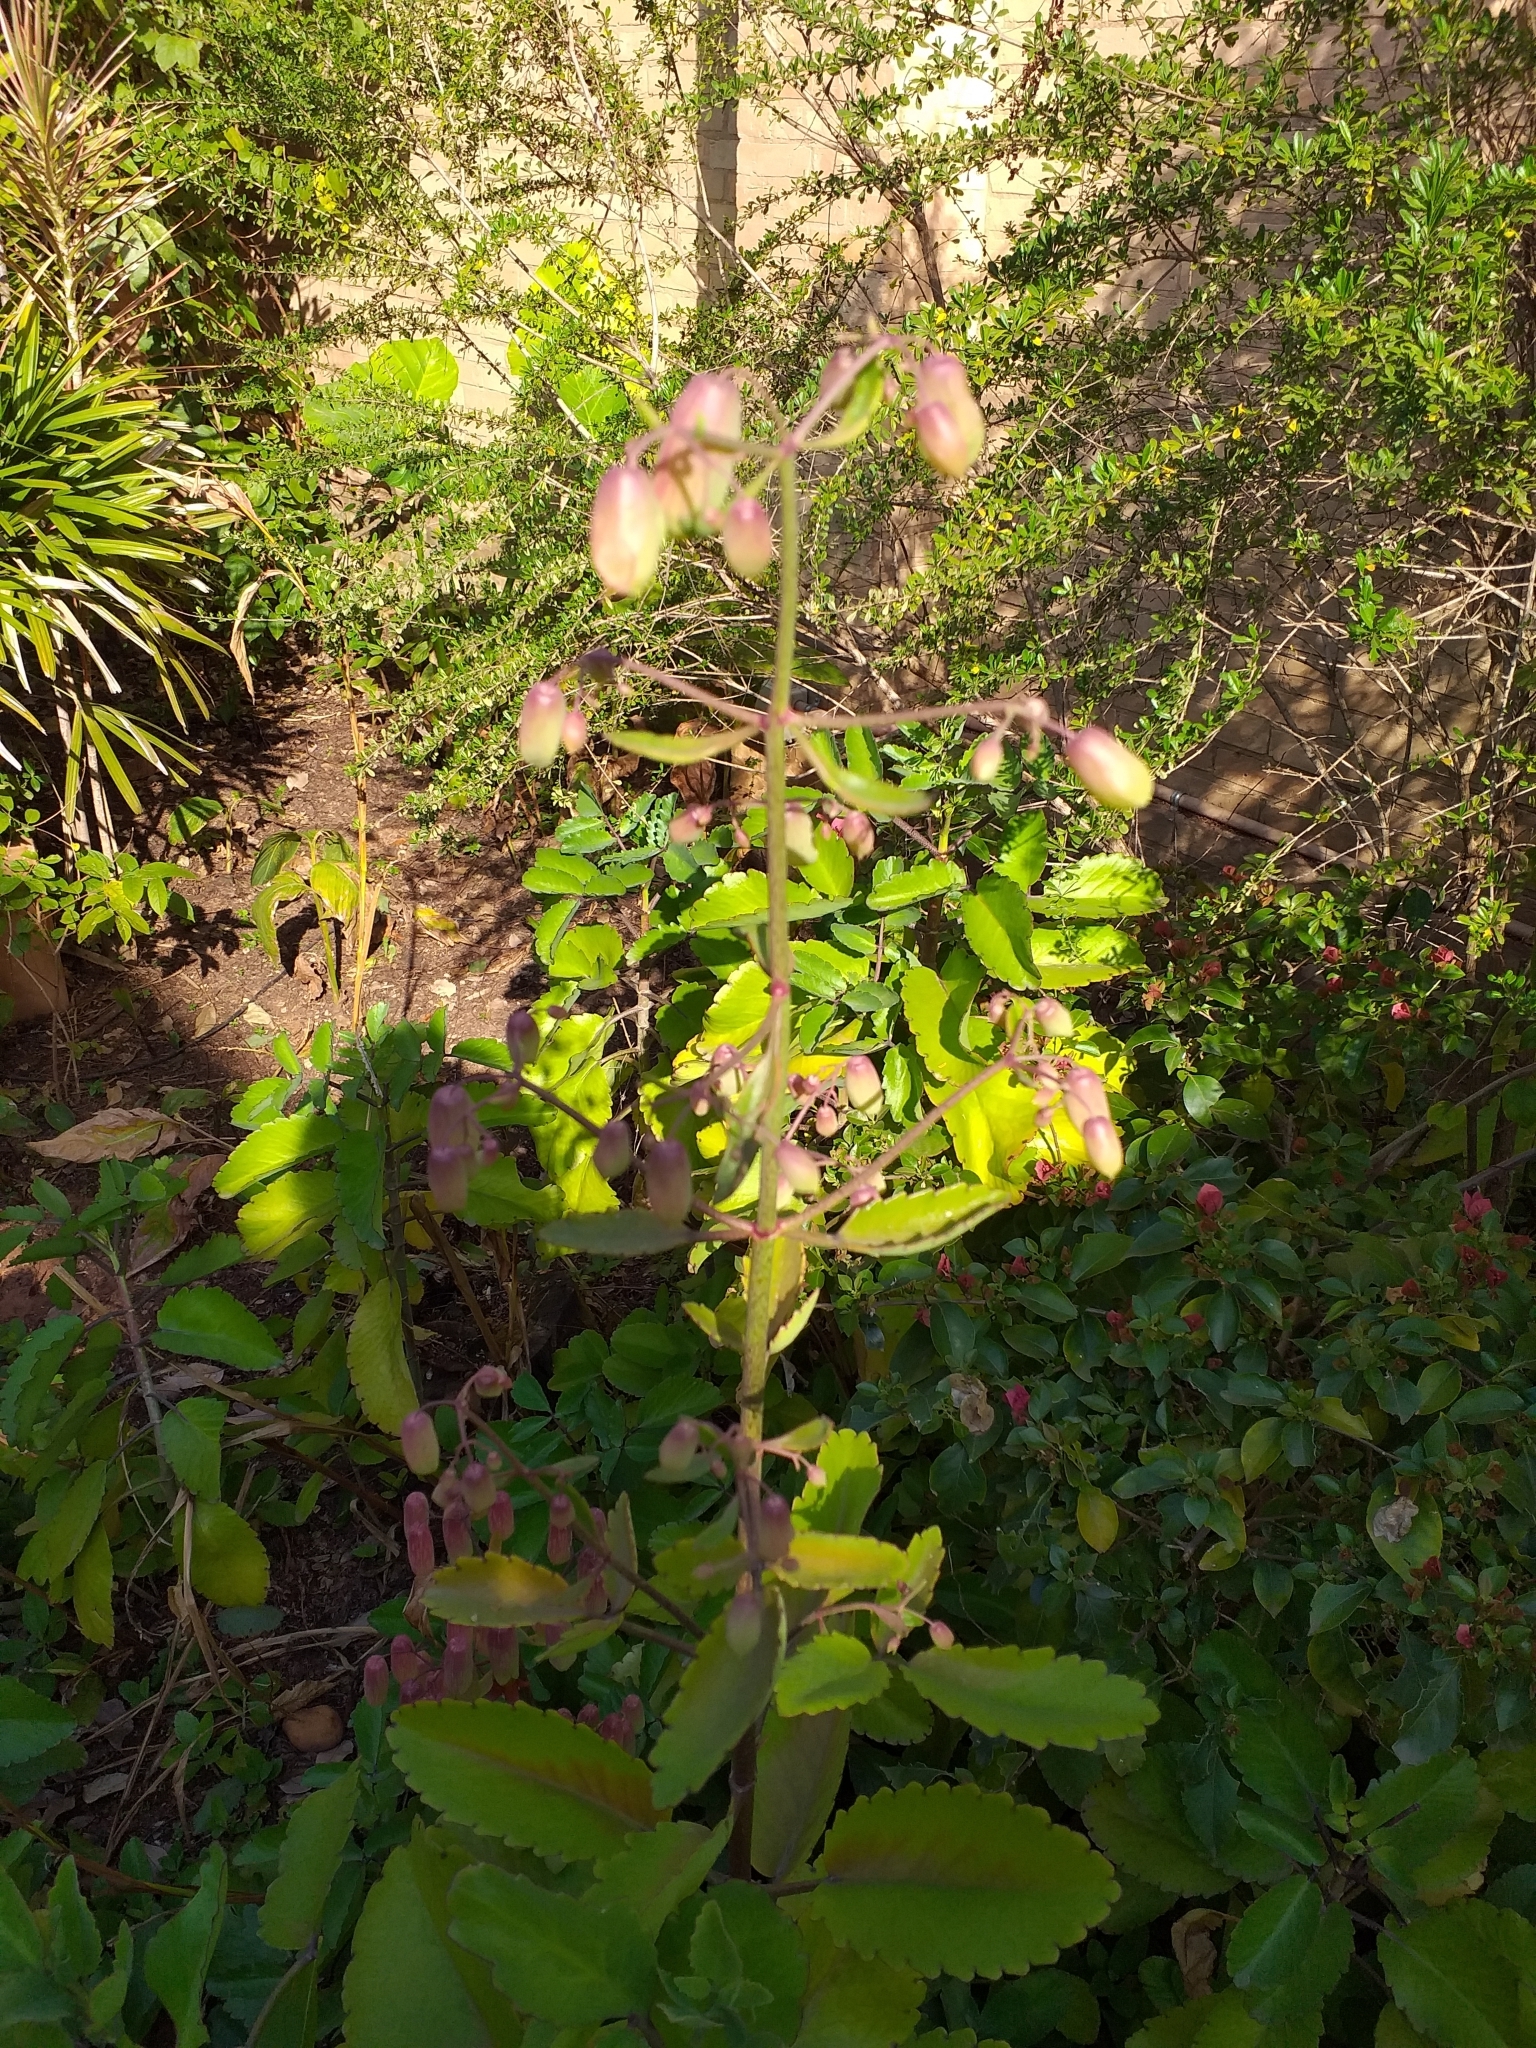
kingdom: Plantae
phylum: Tracheophyta
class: Magnoliopsida
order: Saxifragales
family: Crassulaceae
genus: Kalanchoe
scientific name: Kalanchoe pinnata
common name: Cathedral bells
